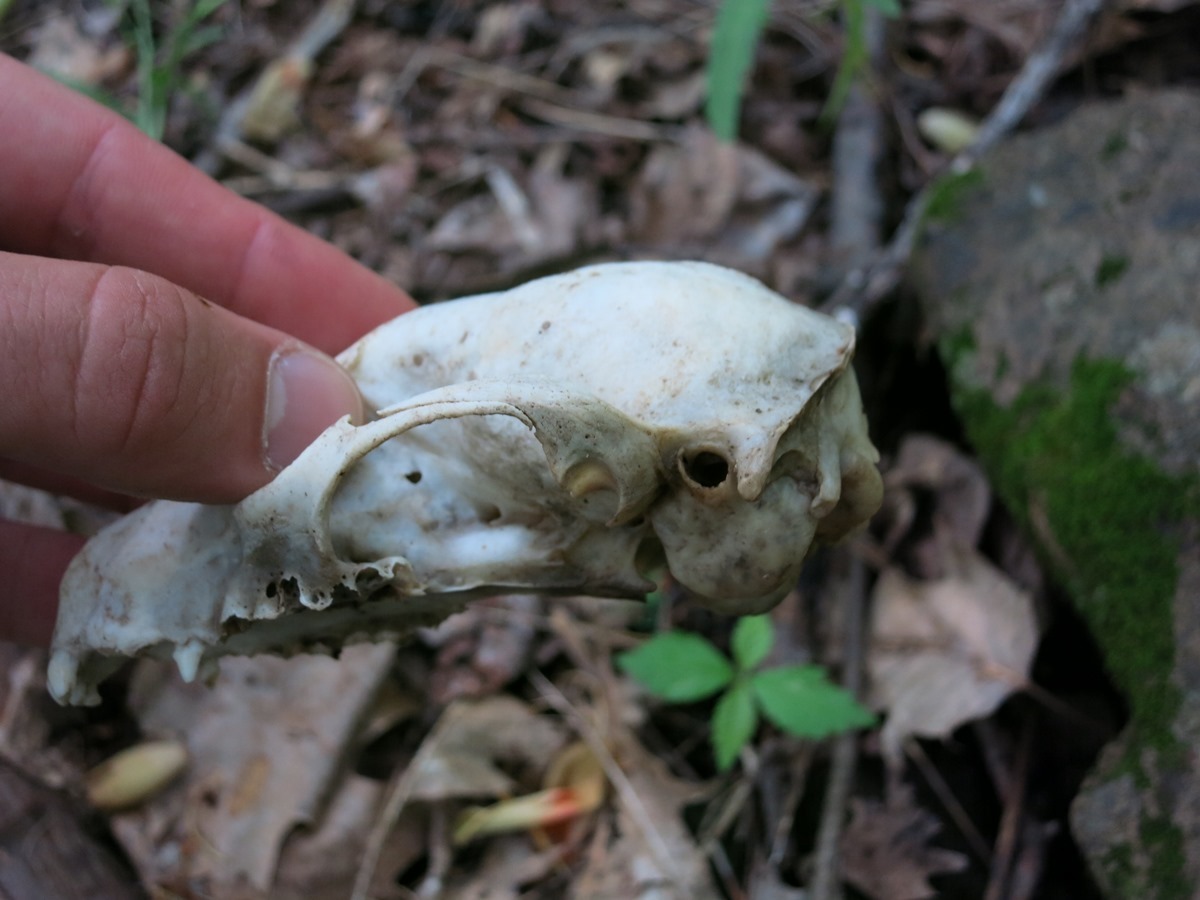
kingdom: Animalia
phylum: Chordata
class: Mammalia
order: Carnivora
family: Procyonidae
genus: Procyon
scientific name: Procyon lotor
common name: Raccoon
